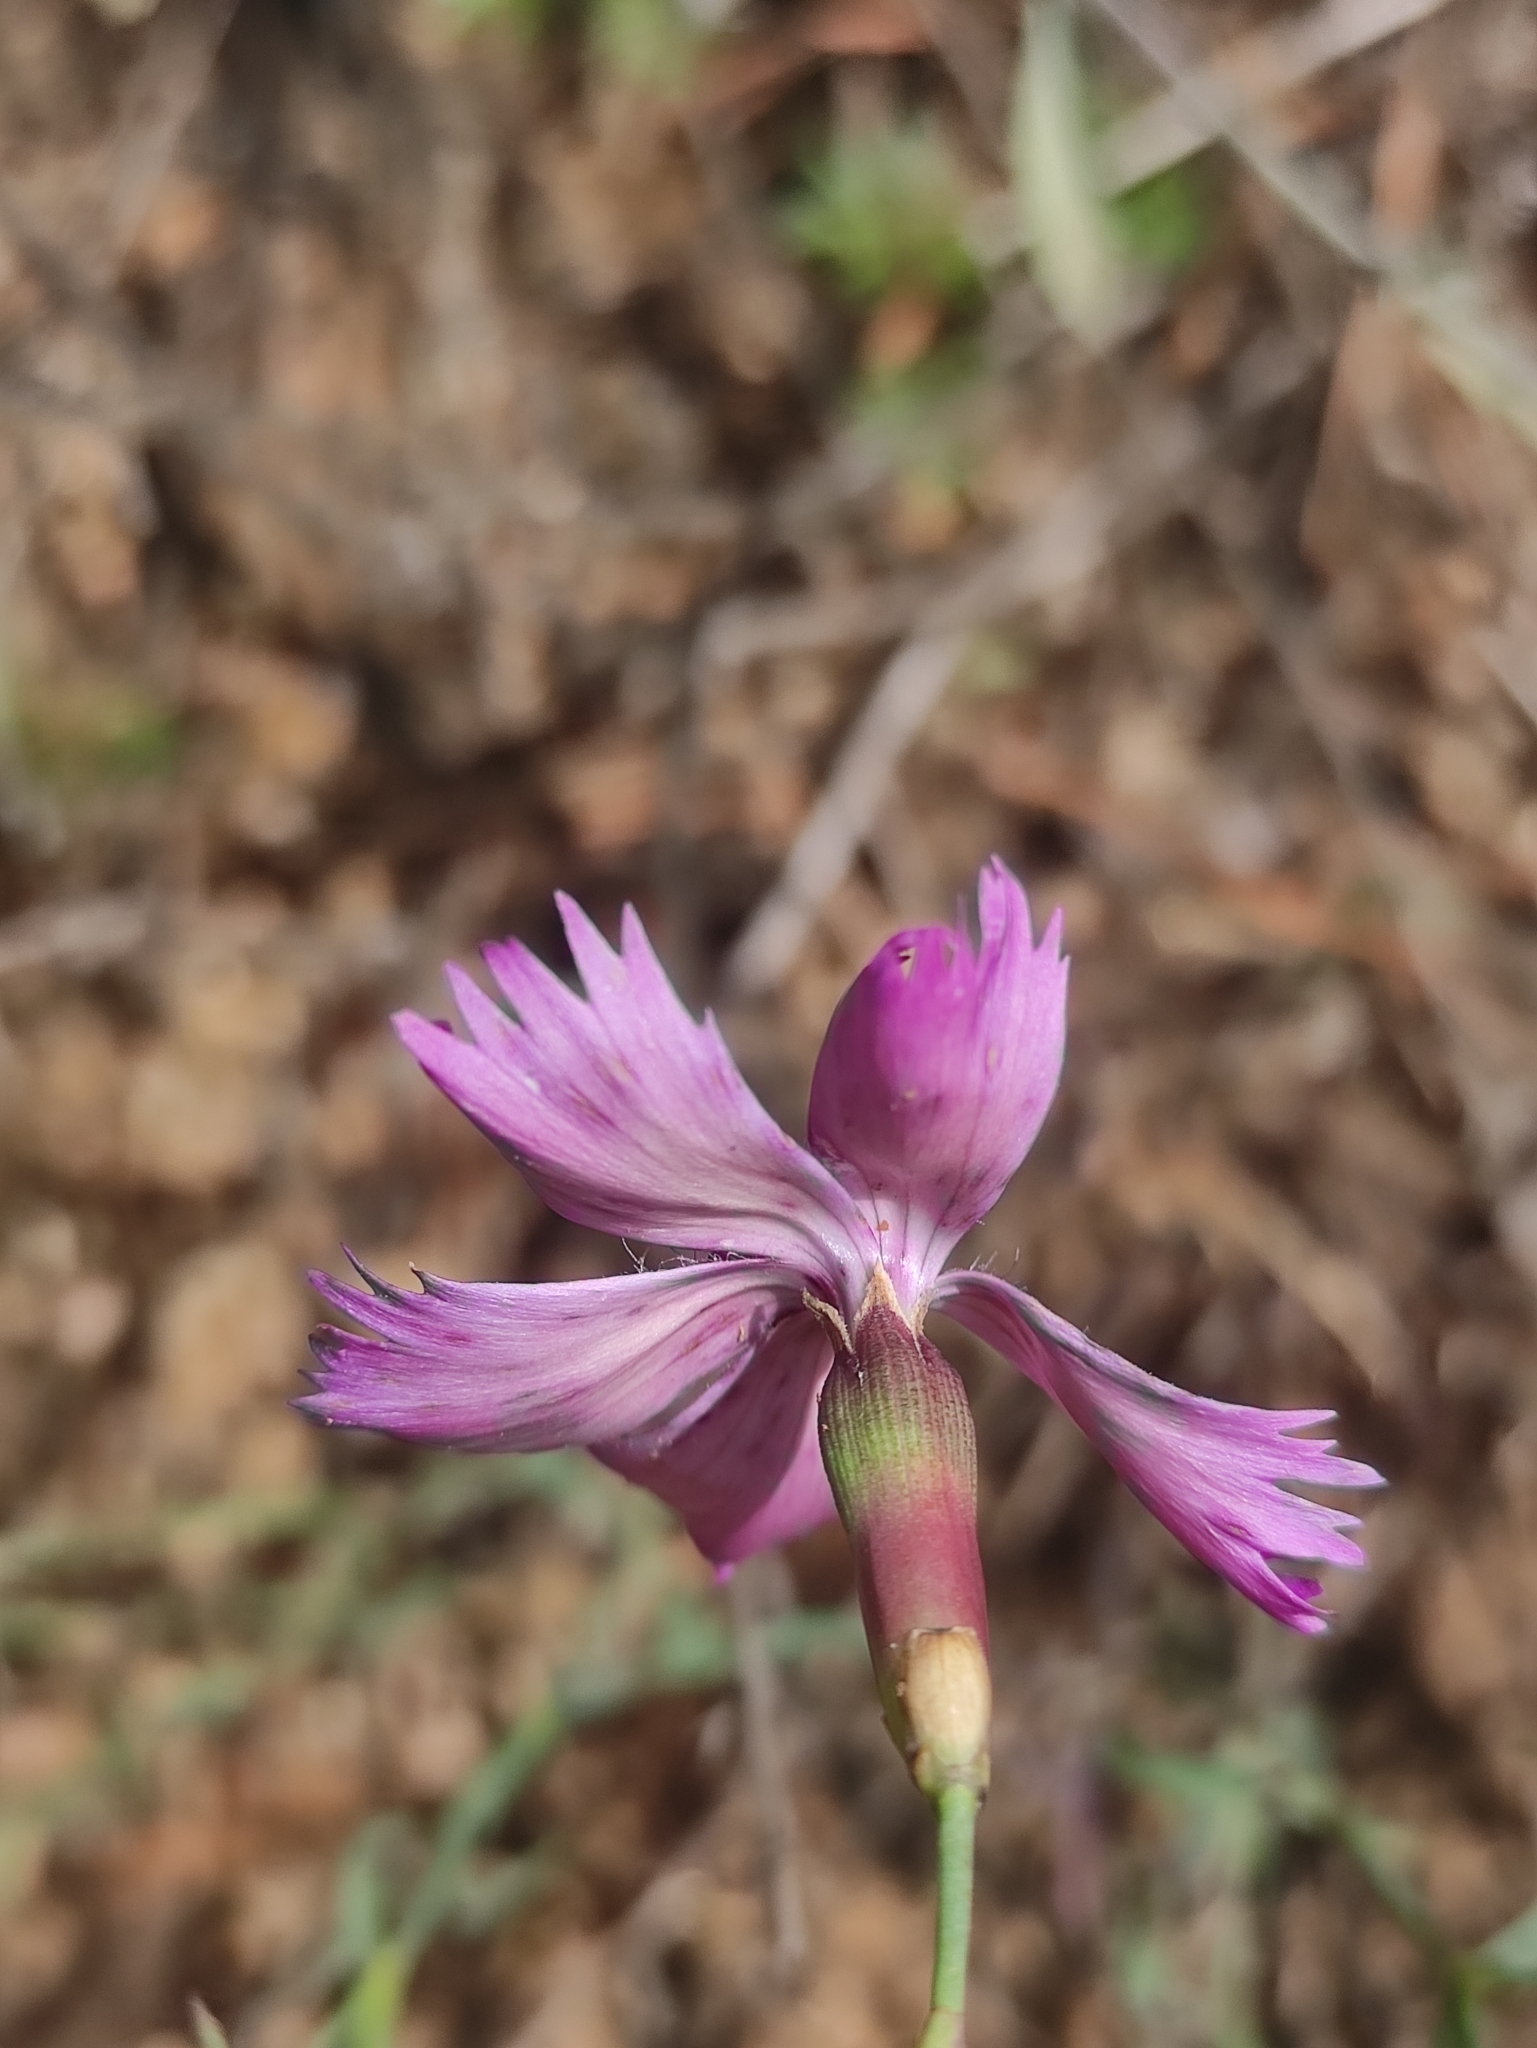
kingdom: Plantae
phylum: Tracheophyta
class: Magnoliopsida
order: Caryophyllales
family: Caryophyllaceae
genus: Dianthus
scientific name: Dianthus chinensis
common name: Rainbow pink
